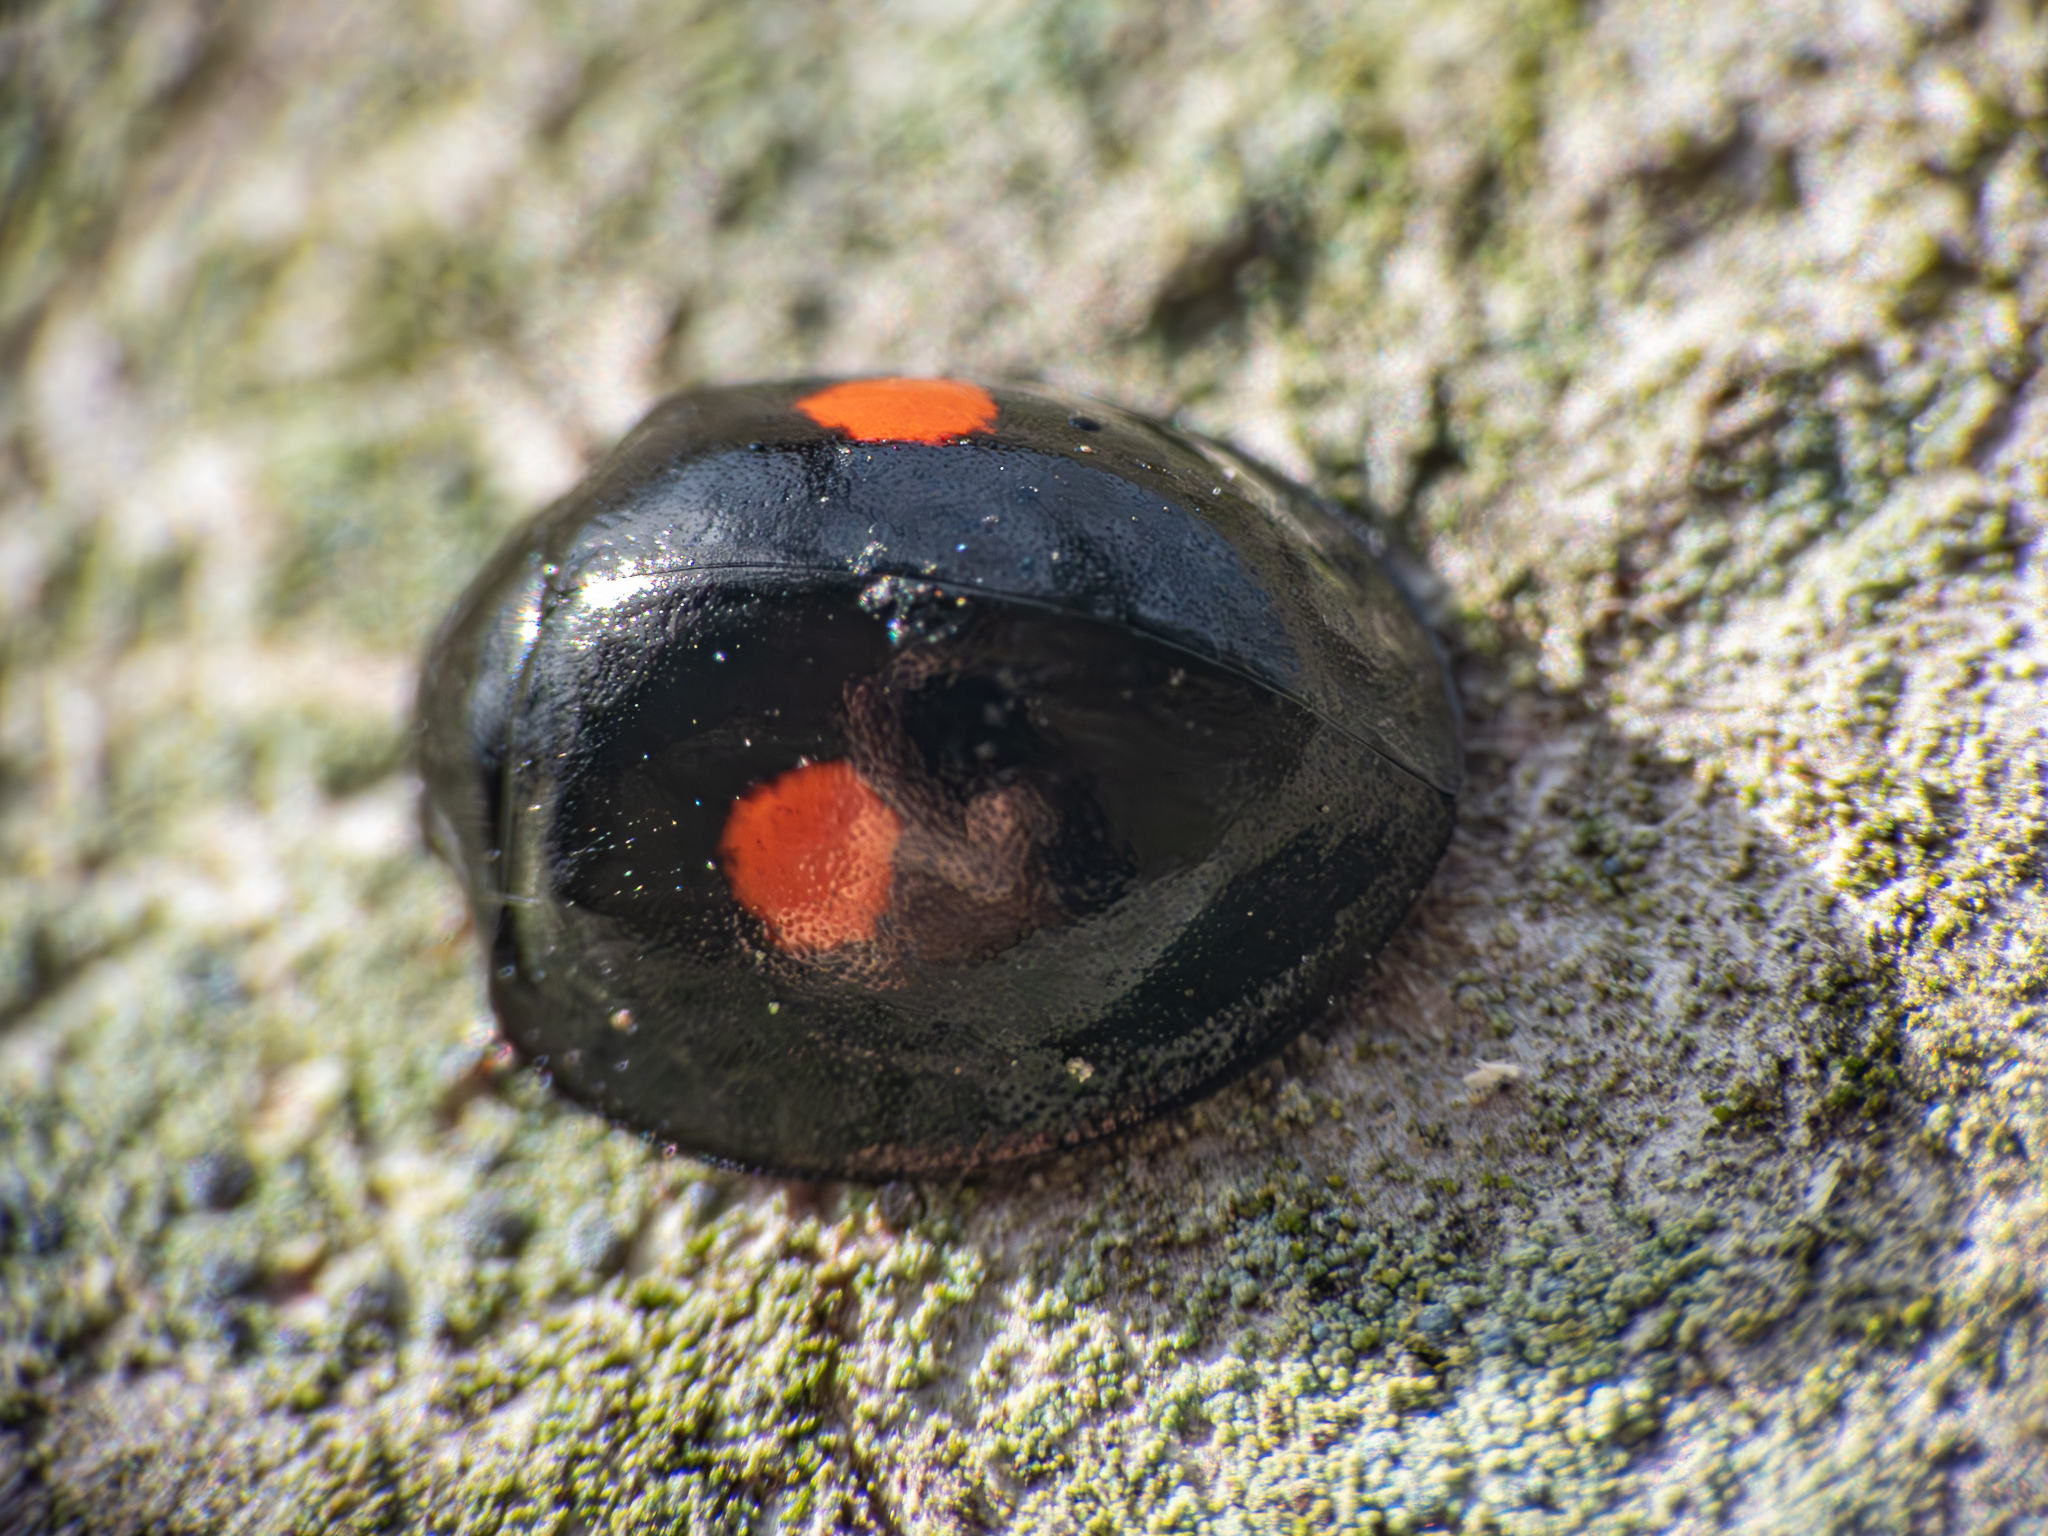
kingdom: Animalia
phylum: Arthropoda
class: Insecta
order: Coleoptera
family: Coccinellidae
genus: Chilocorus
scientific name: Chilocorus stigma
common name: Twicestabbed lady beetle
